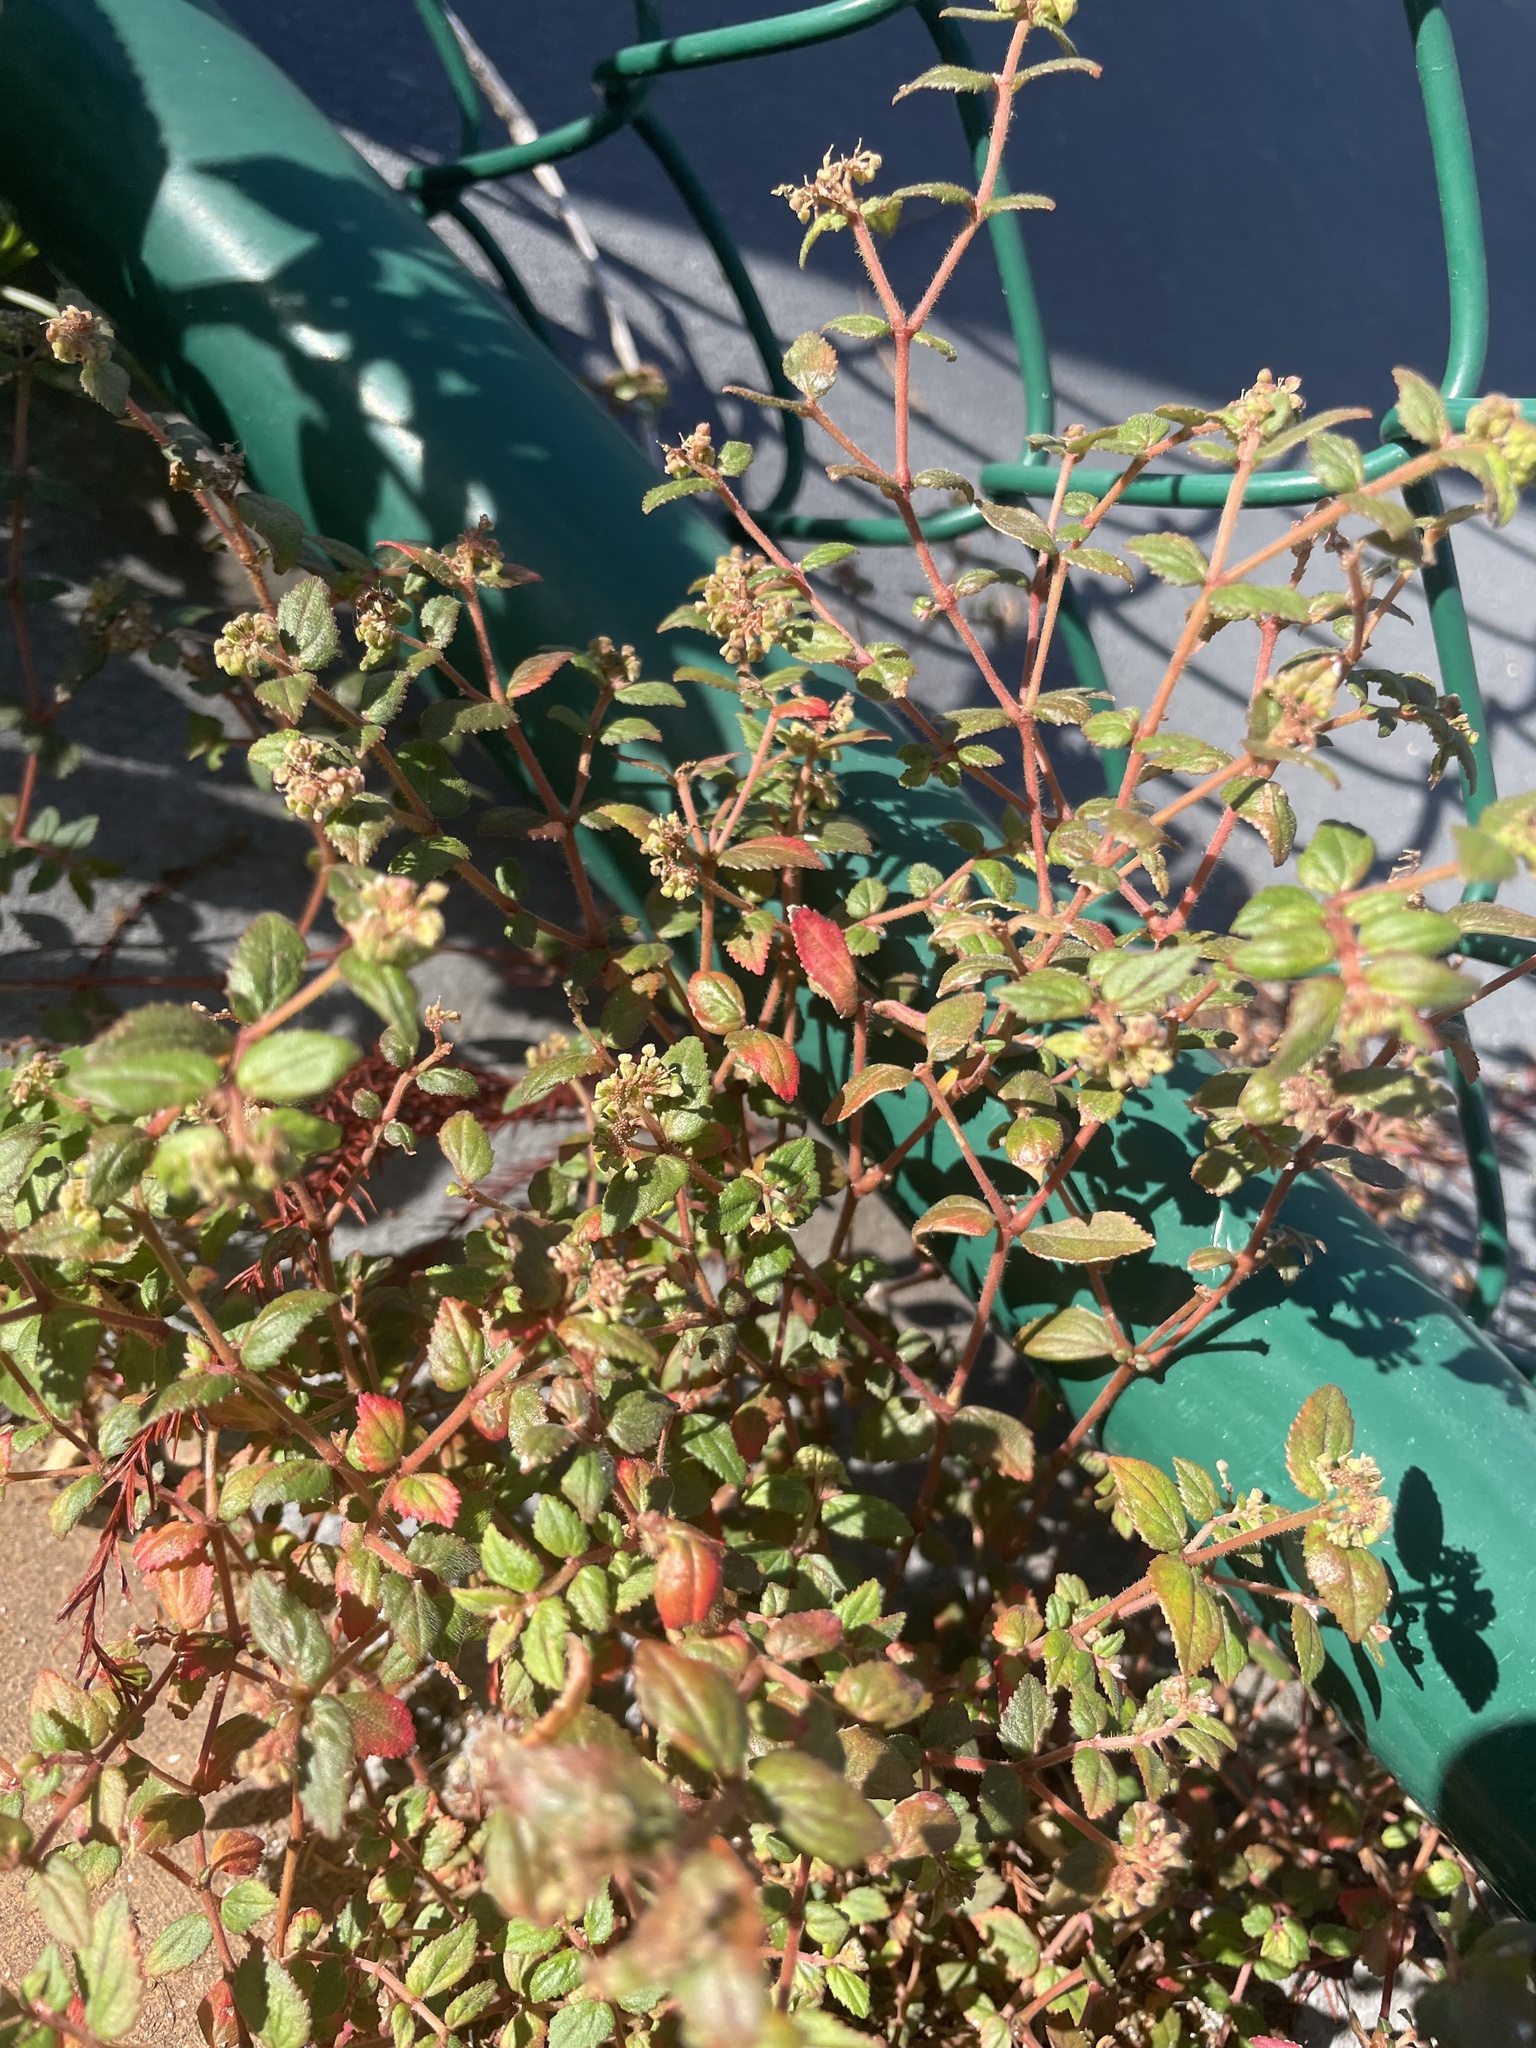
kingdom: Plantae
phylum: Tracheophyta
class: Magnoliopsida
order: Malpighiales
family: Euphorbiaceae
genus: Euphorbia
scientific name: Euphorbia ophthalmica
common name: Florida hammock sandmat
